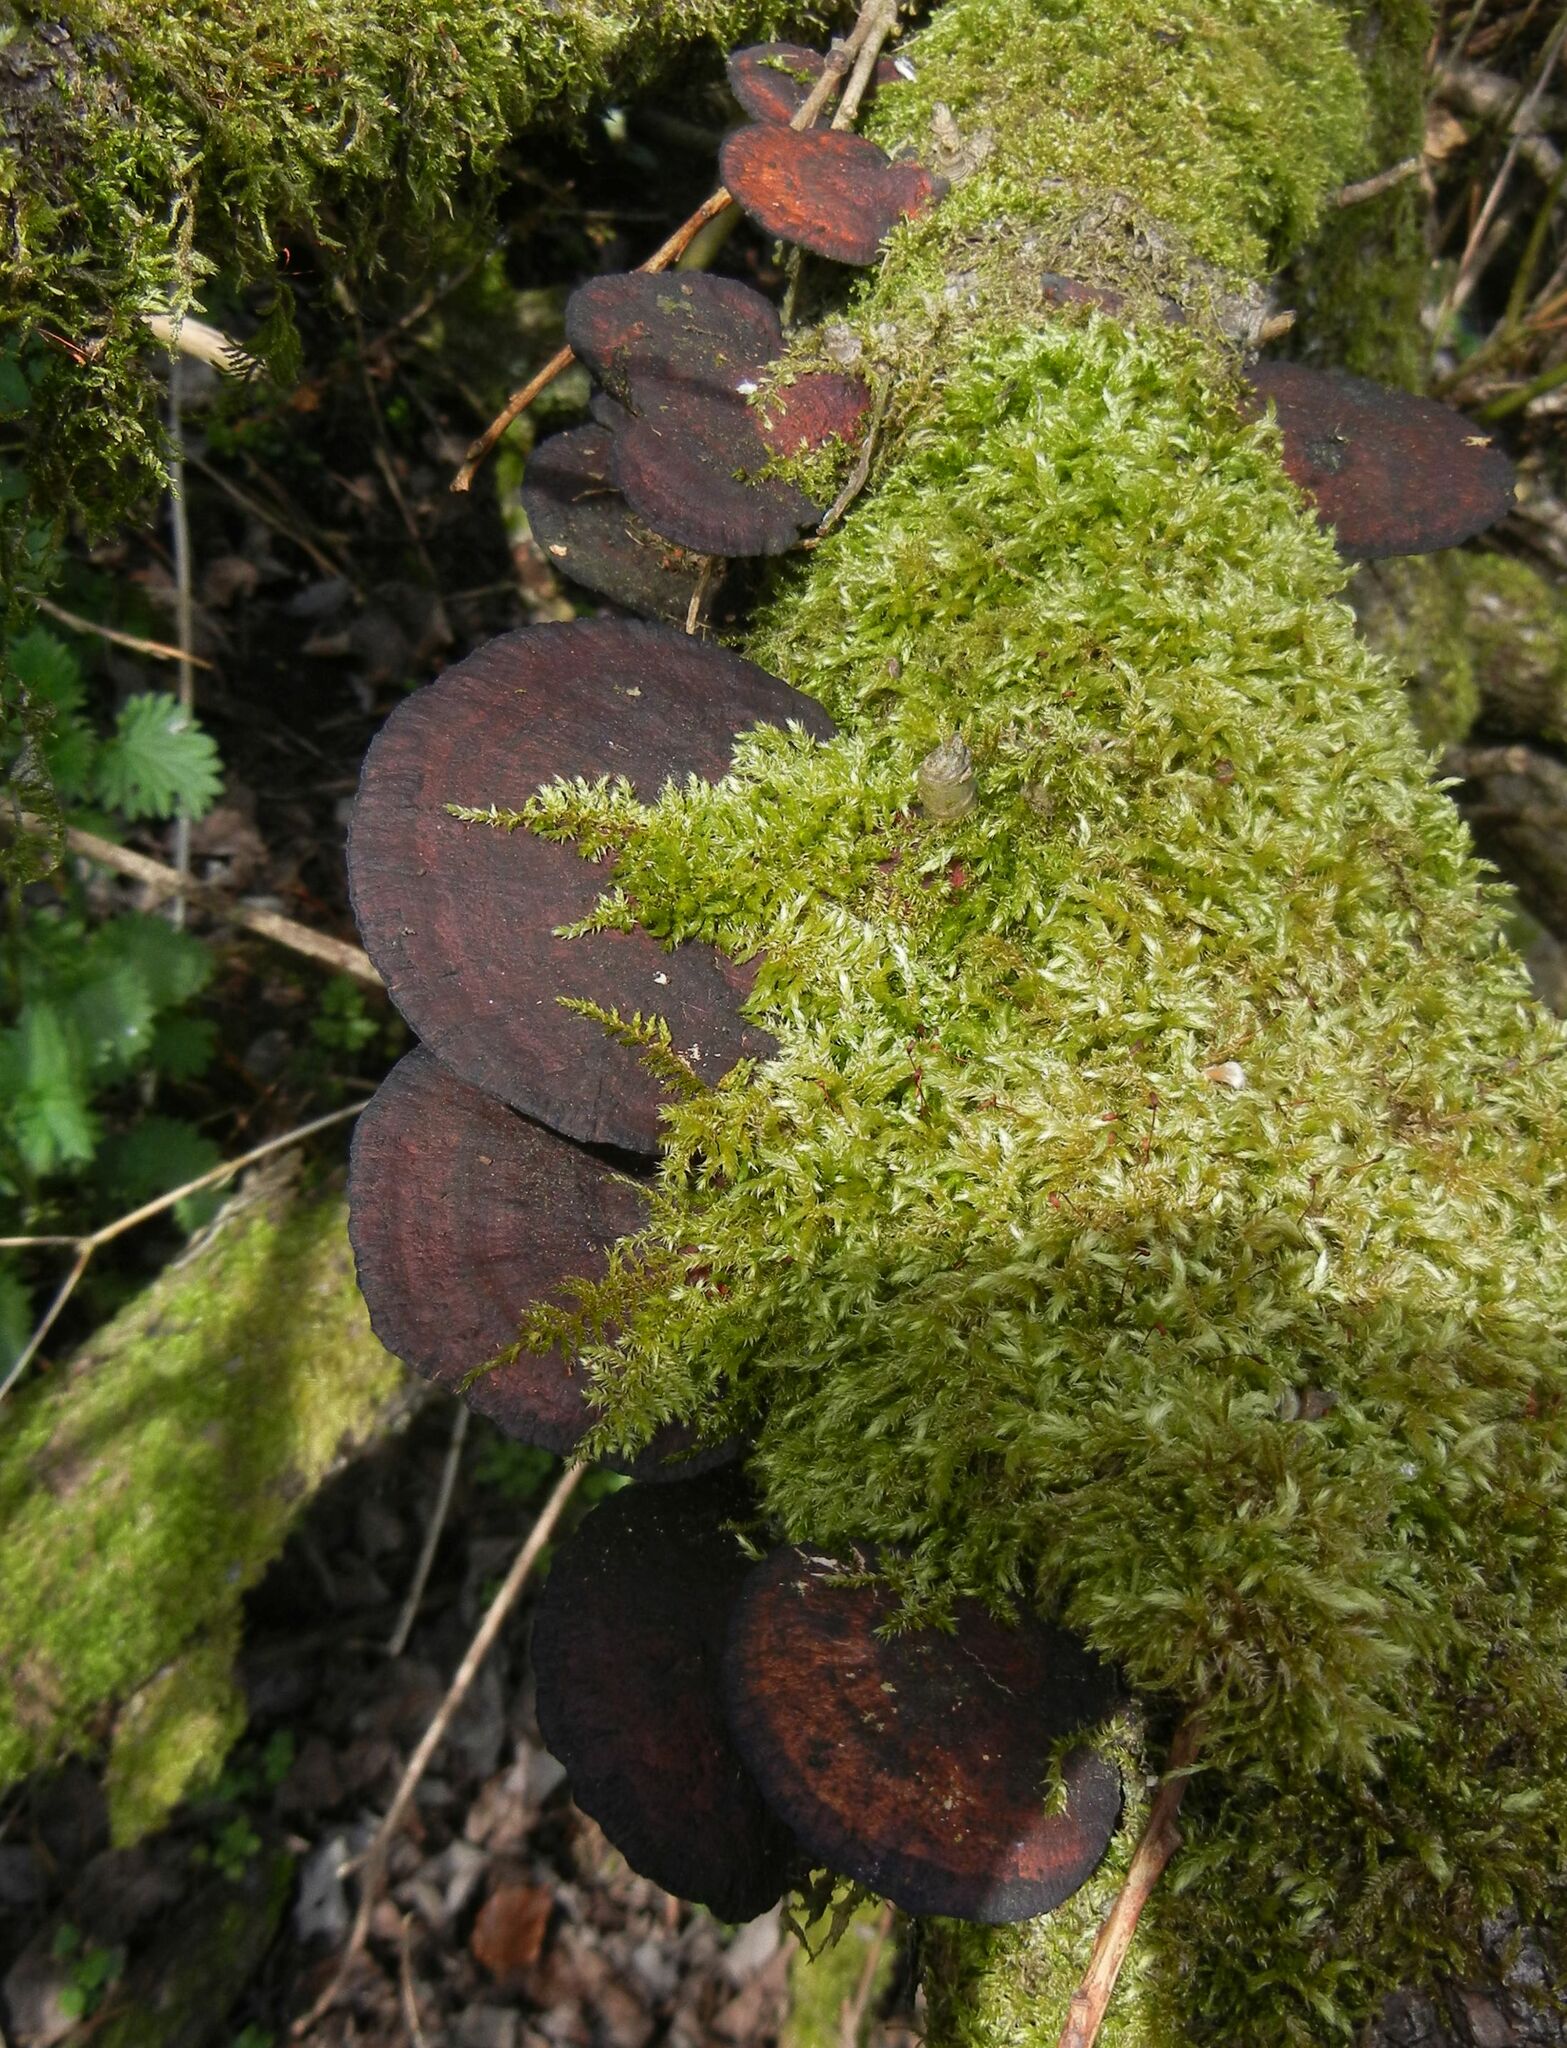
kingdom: Fungi
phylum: Basidiomycota
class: Agaricomycetes
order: Polyporales
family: Polyporaceae
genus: Daedaleopsis
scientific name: Daedaleopsis confragosa
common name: Blushing bracket
